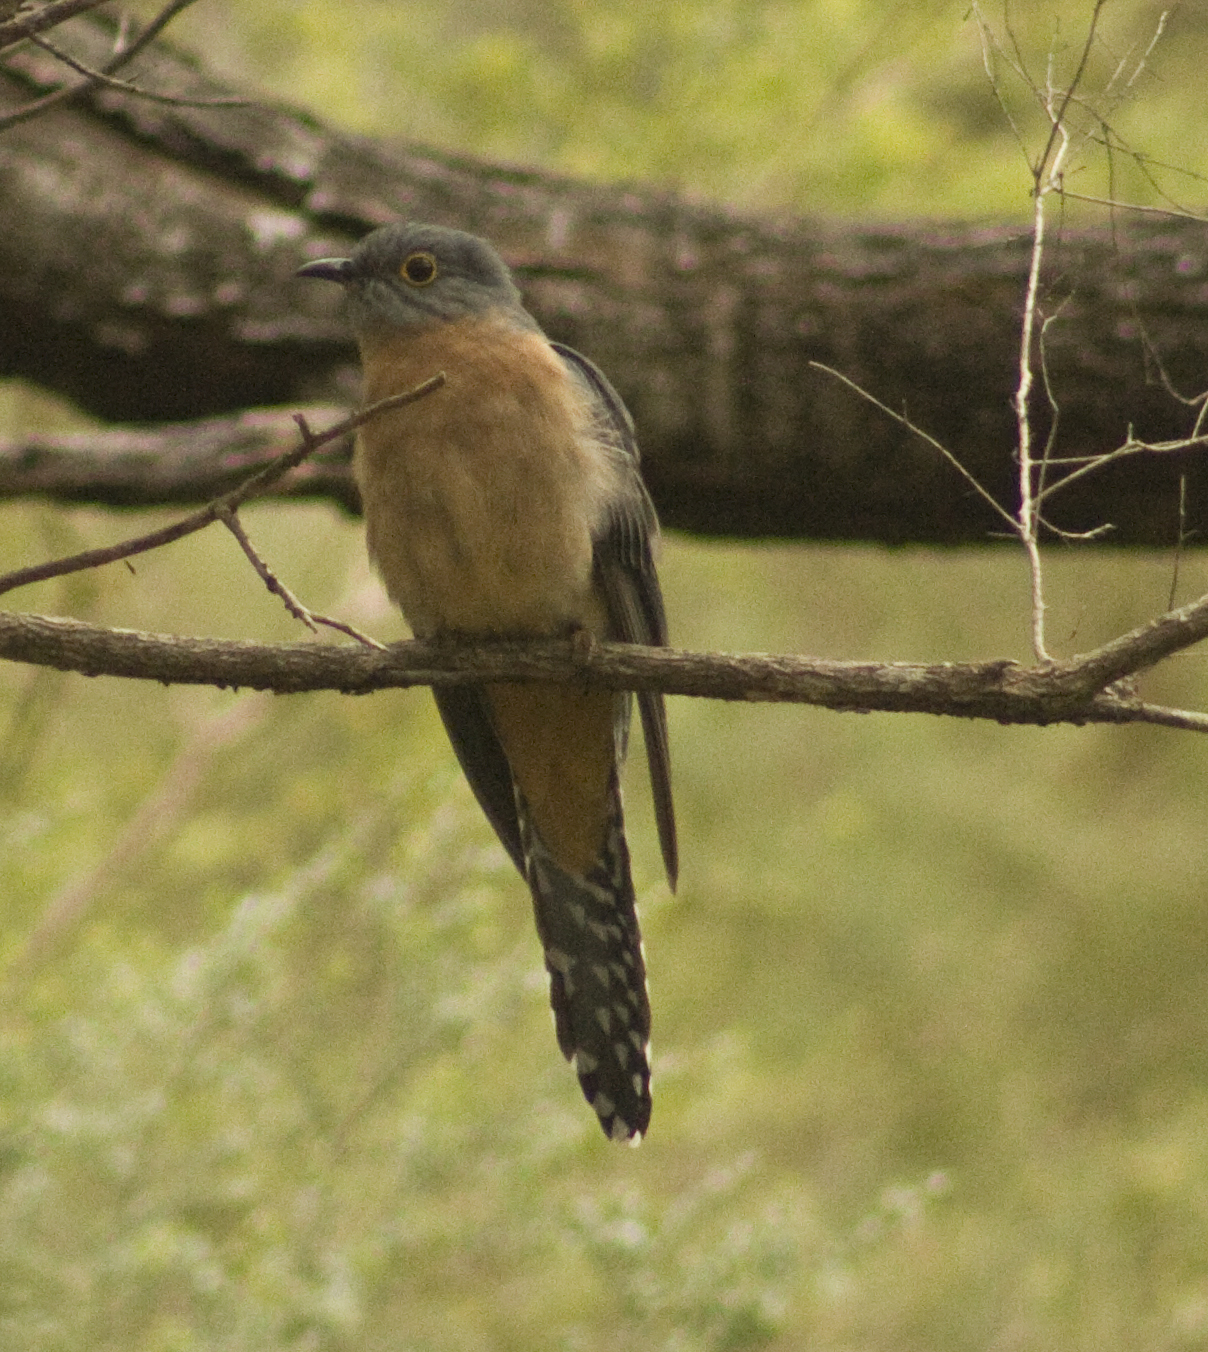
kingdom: Animalia
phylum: Chordata
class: Aves
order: Cuculiformes
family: Cuculidae
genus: Cacomantis
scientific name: Cacomantis flabelliformis
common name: Fan-tailed cuckoo
